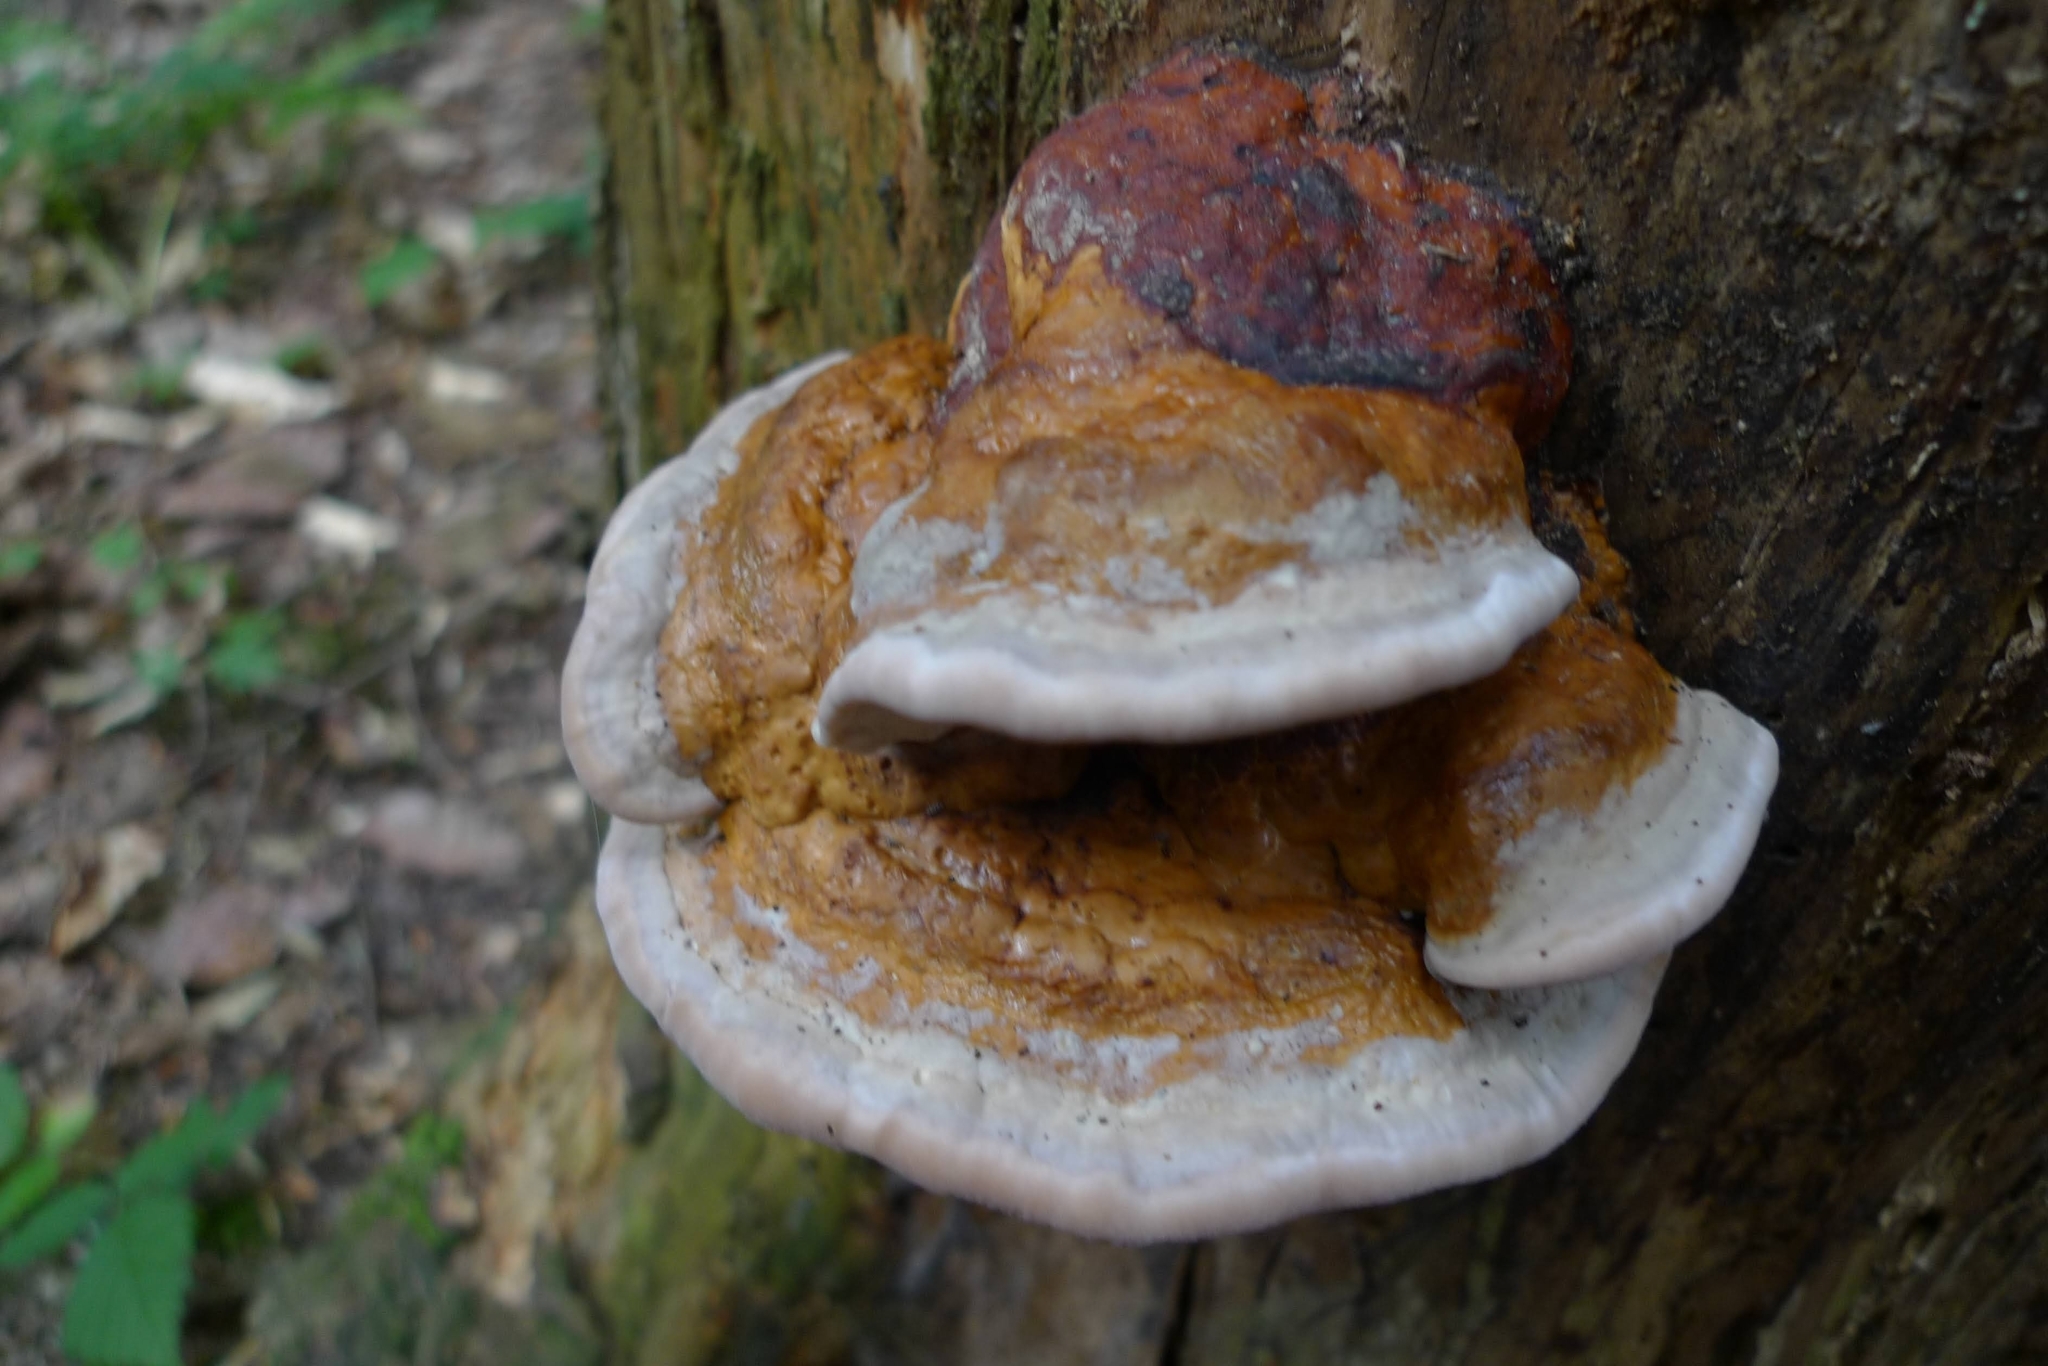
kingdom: Fungi
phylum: Basidiomycota
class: Agaricomycetes
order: Polyporales
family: Fomitopsidaceae
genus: Fomitopsis
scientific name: Fomitopsis pinicola
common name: Red-belted bracket
